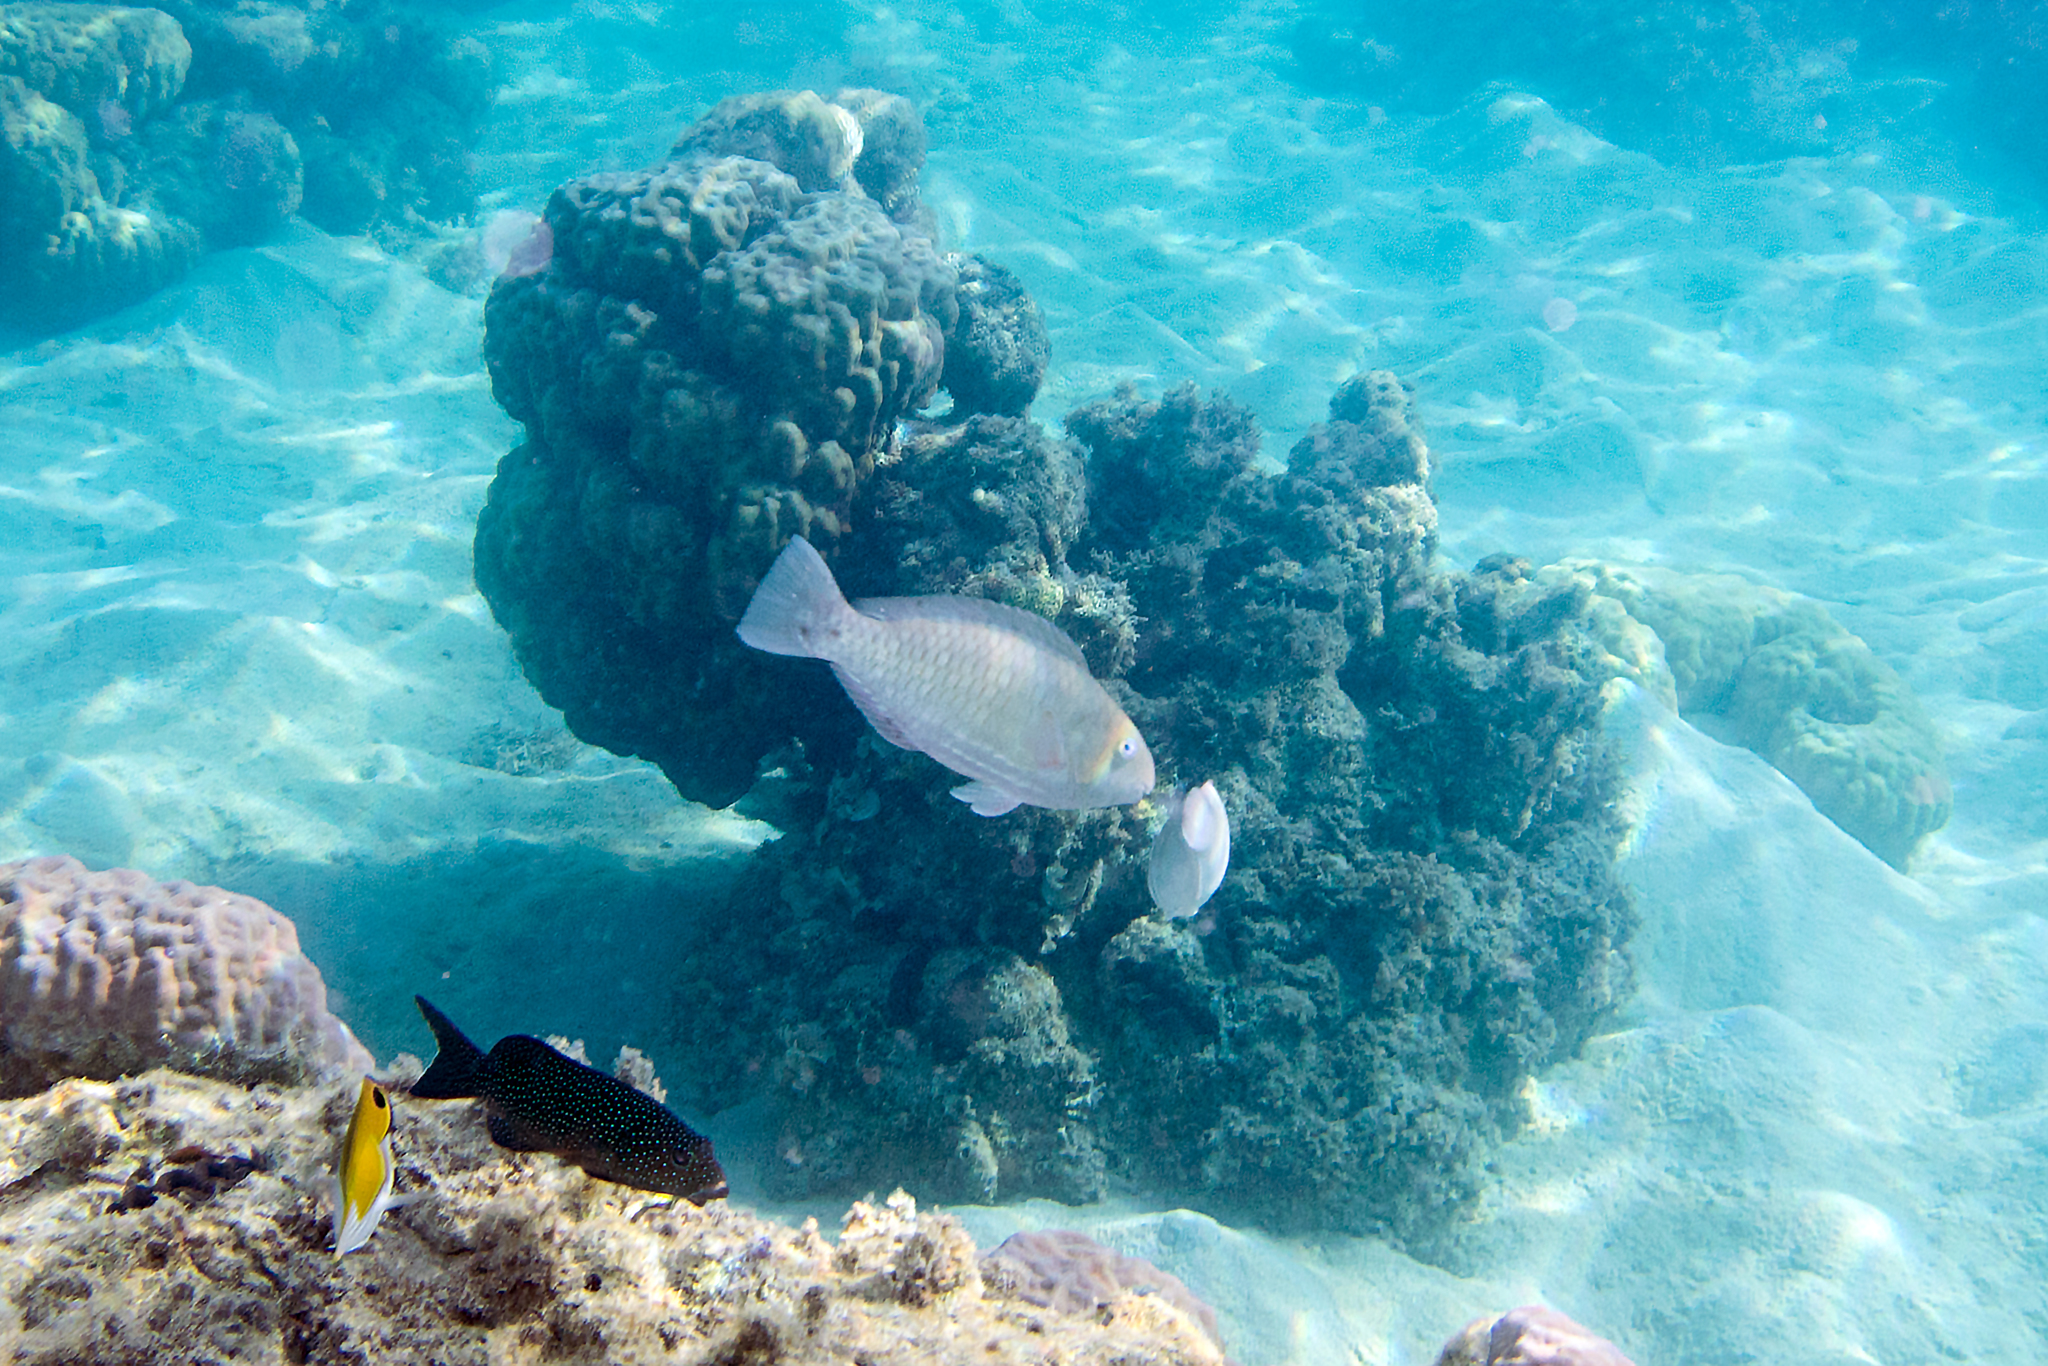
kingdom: Animalia
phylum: Chordata
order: Perciformes
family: Scaridae
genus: Scarus
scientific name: Scarus rivulatus
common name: Surf parrotfish
